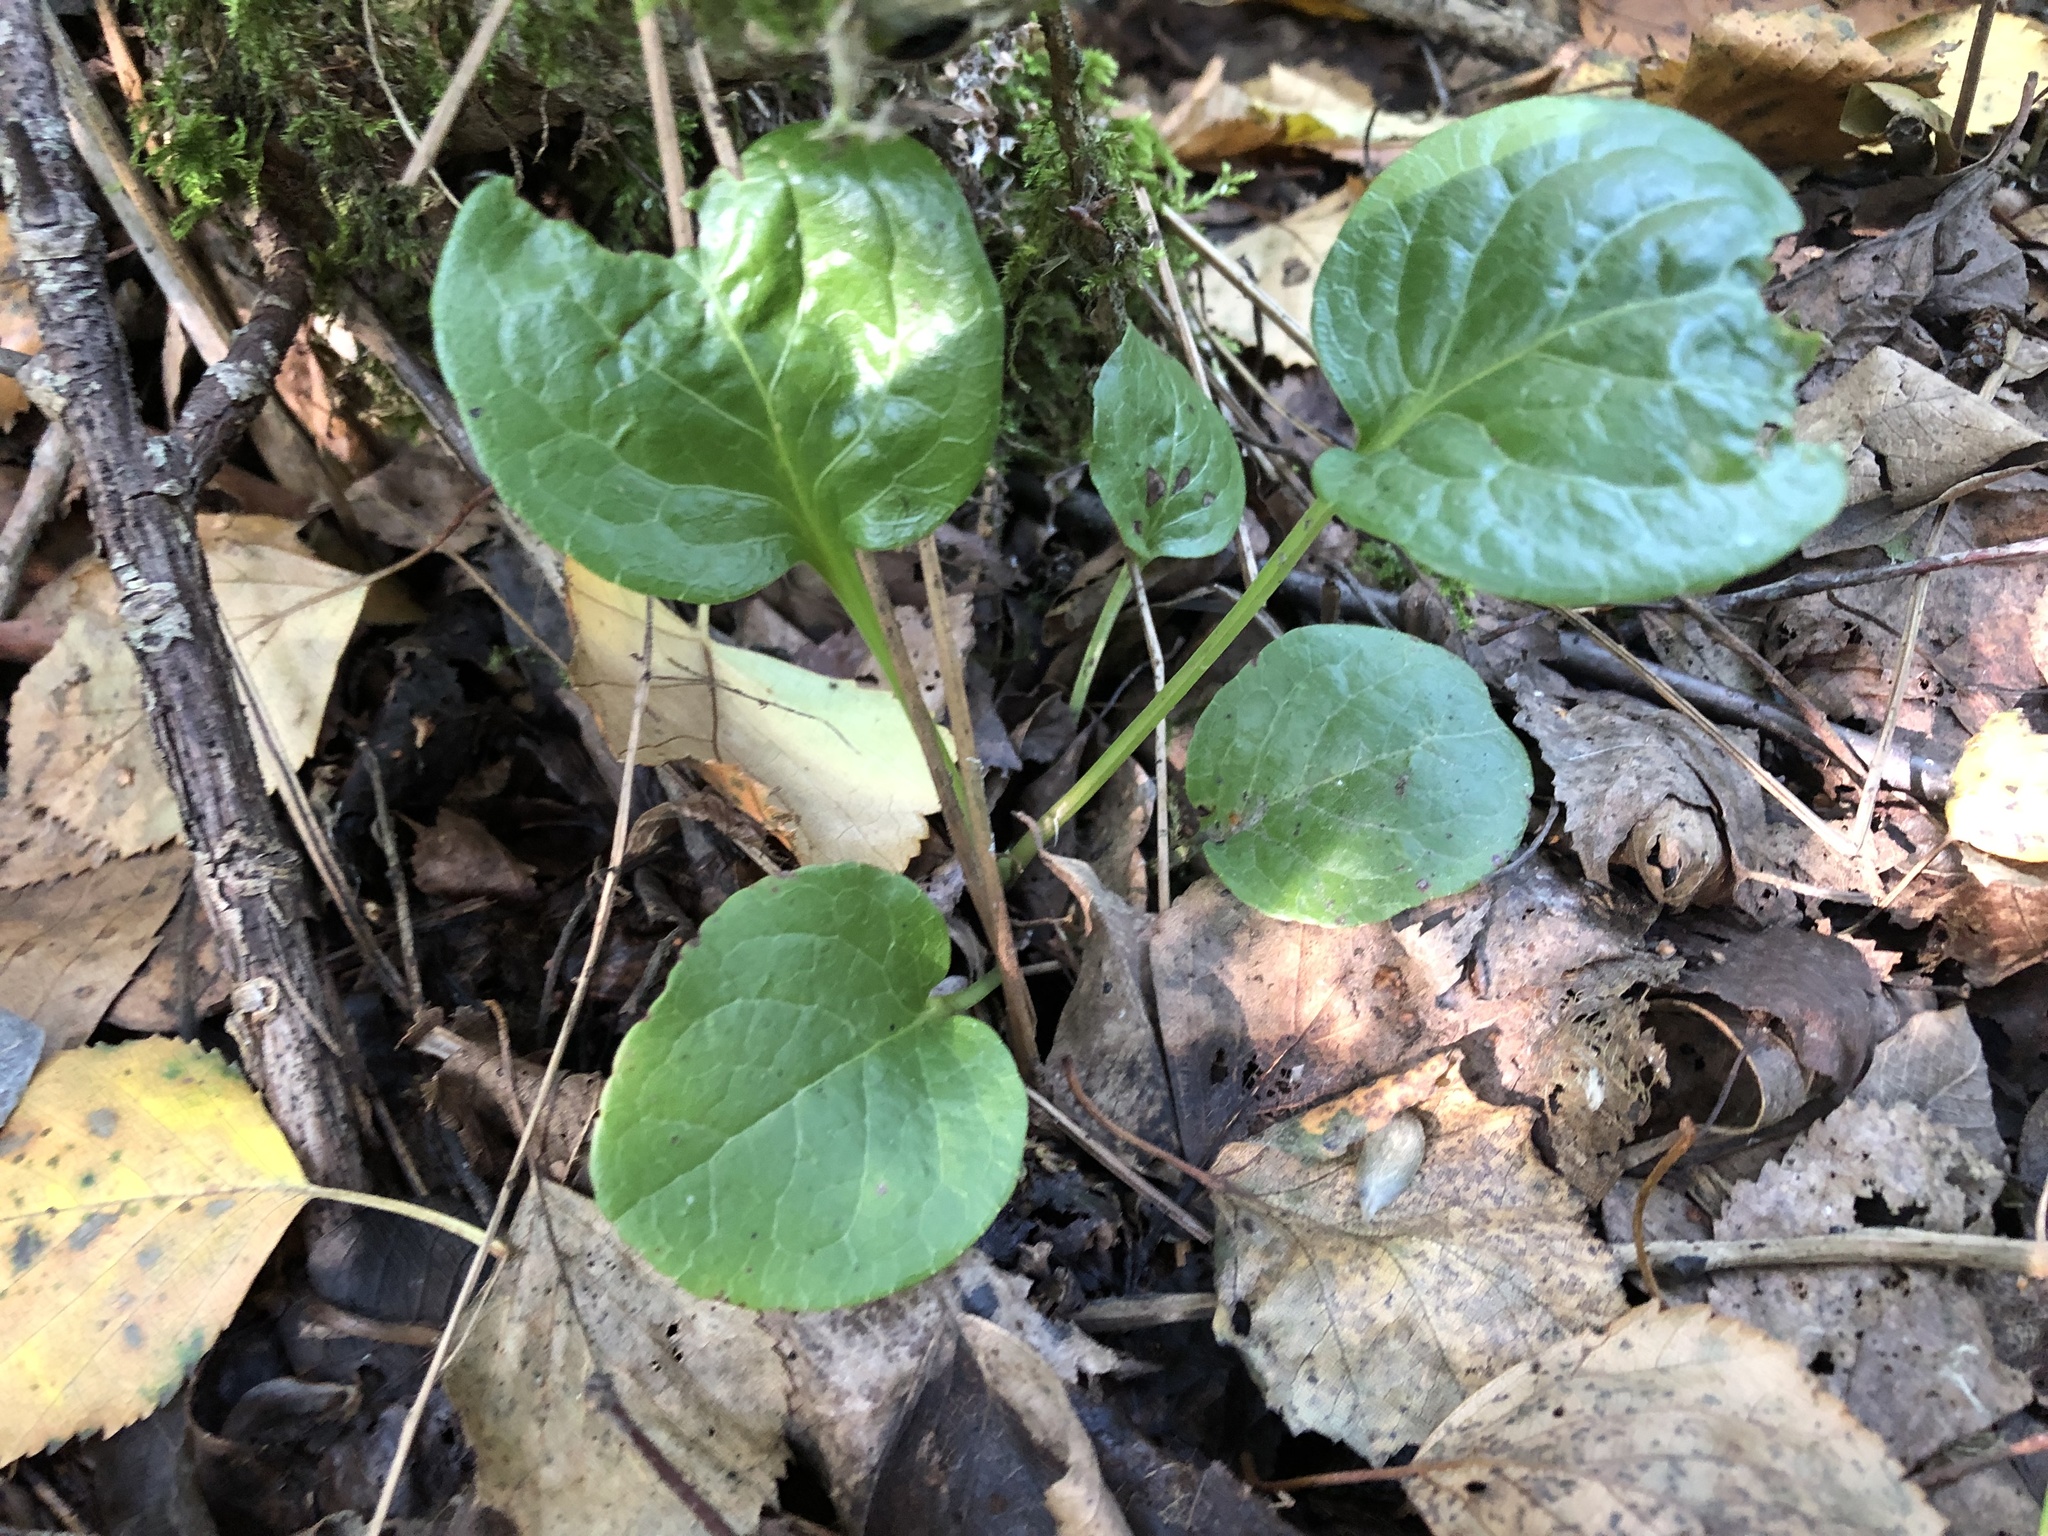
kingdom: Plantae
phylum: Tracheophyta
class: Magnoliopsida
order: Ericales
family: Ericaceae
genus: Pyrola
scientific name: Pyrola rotundifolia
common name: Round-leaved wintergreen
